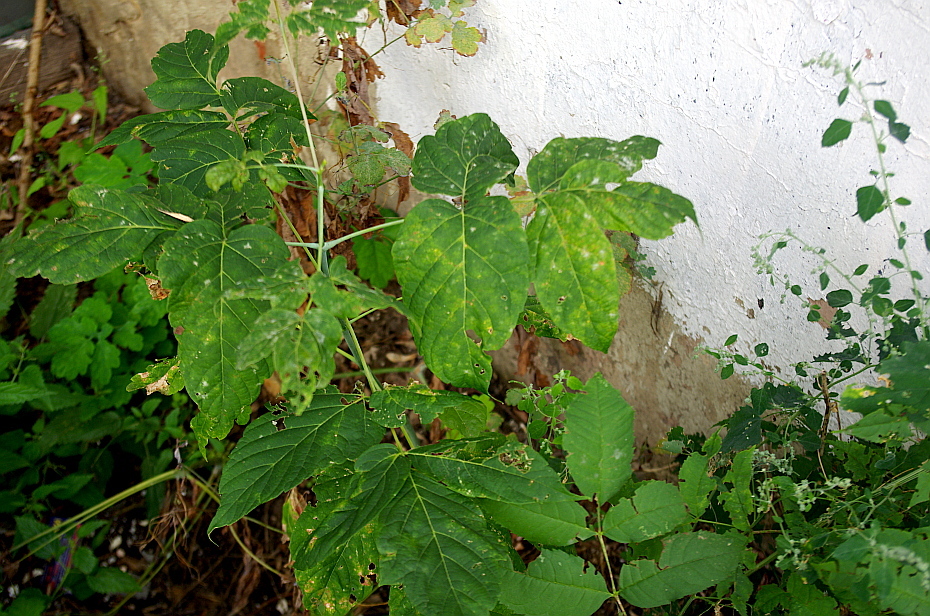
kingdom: Plantae
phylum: Tracheophyta
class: Magnoliopsida
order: Sapindales
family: Sapindaceae
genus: Acer
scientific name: Acer negundo
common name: Ashleaf maple
